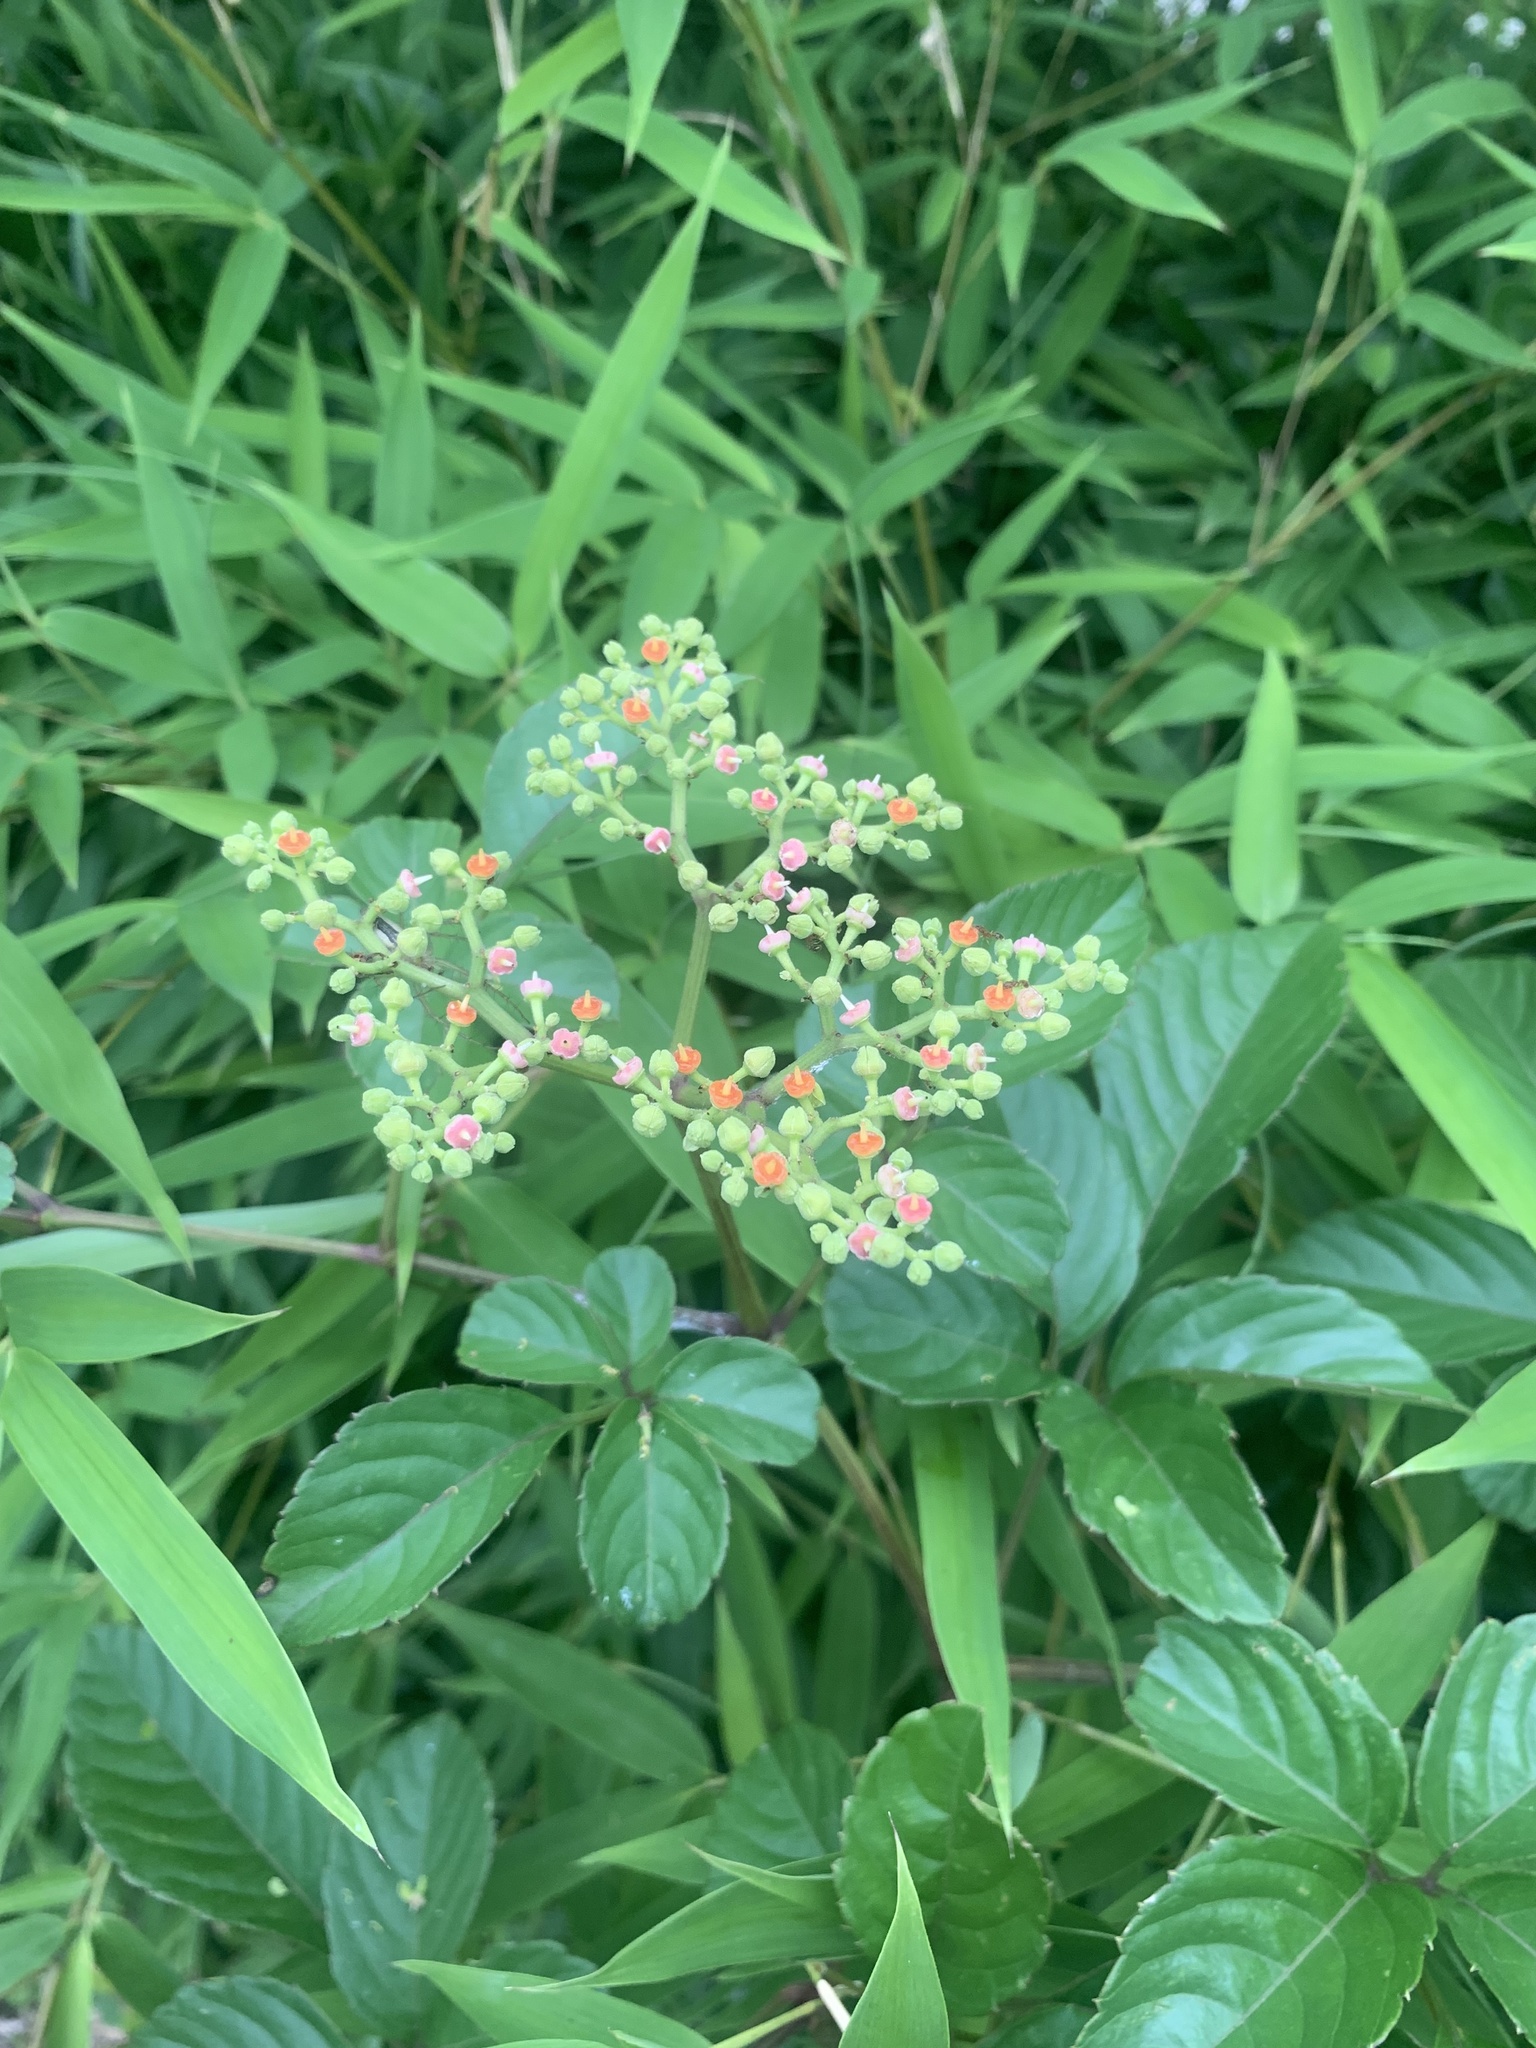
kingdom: Plantae
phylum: Tracheophyta
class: Magnoliopsida
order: Vitales
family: Vitaceae
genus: Causonis
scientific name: Causonis japonica
